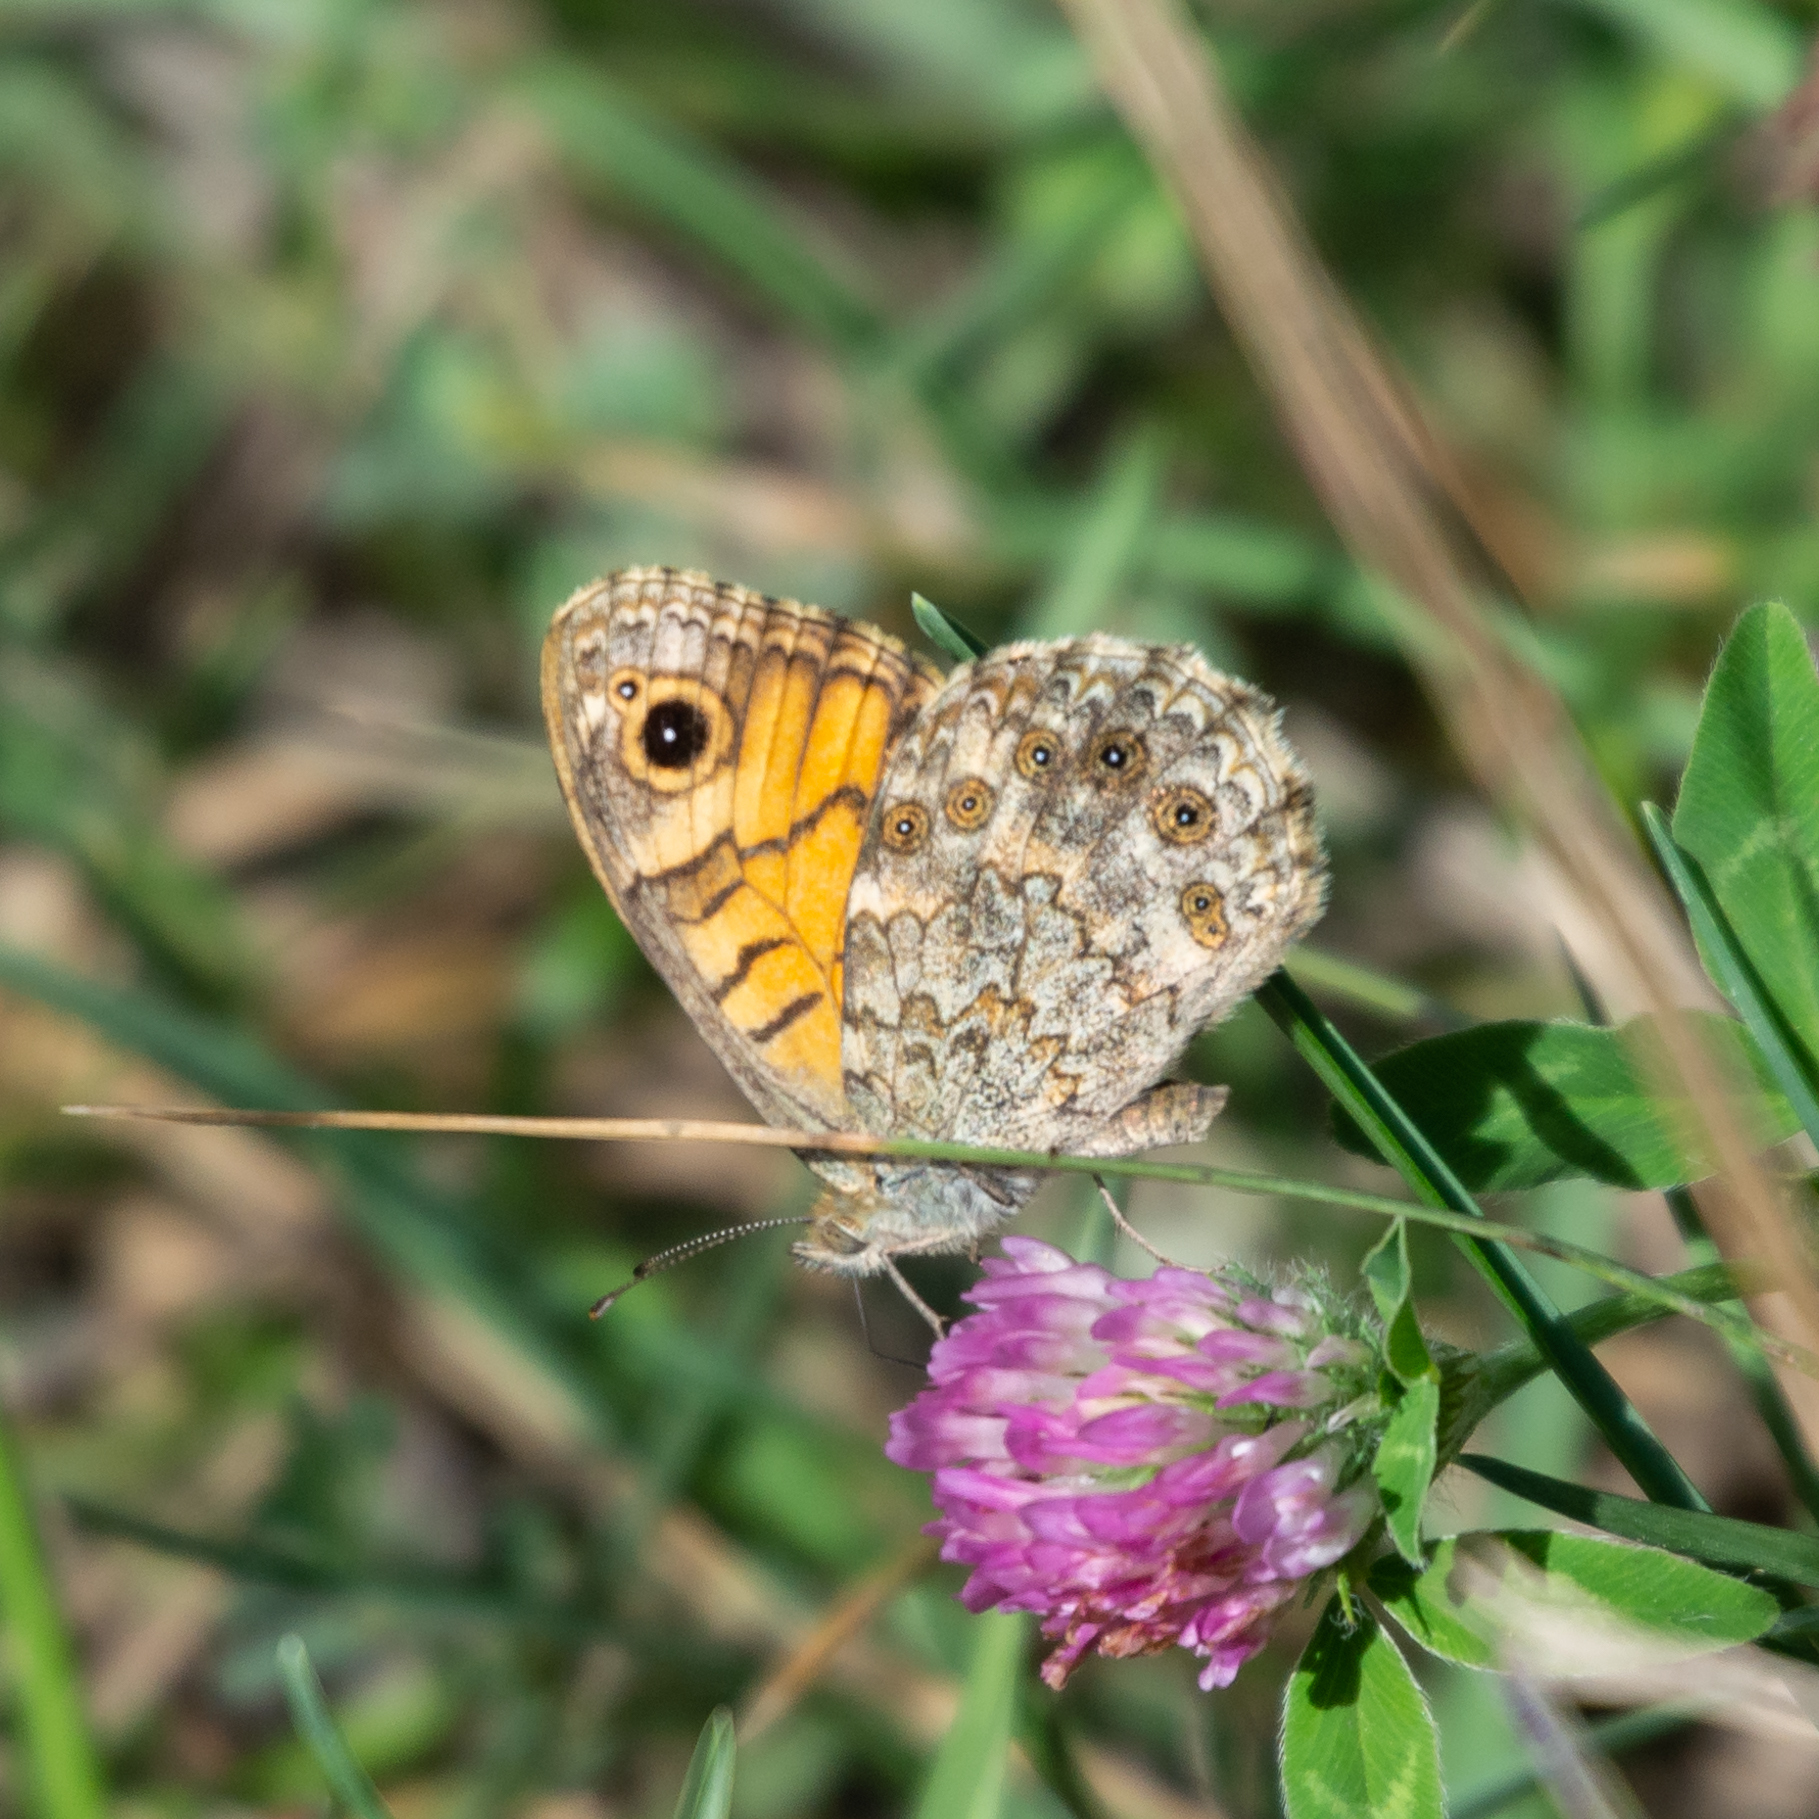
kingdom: Animalia
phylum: Arthropoda
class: Insecta
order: Lepidoptera
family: Nymphalidae
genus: Pararge
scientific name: Pararge Lasiommata megera
